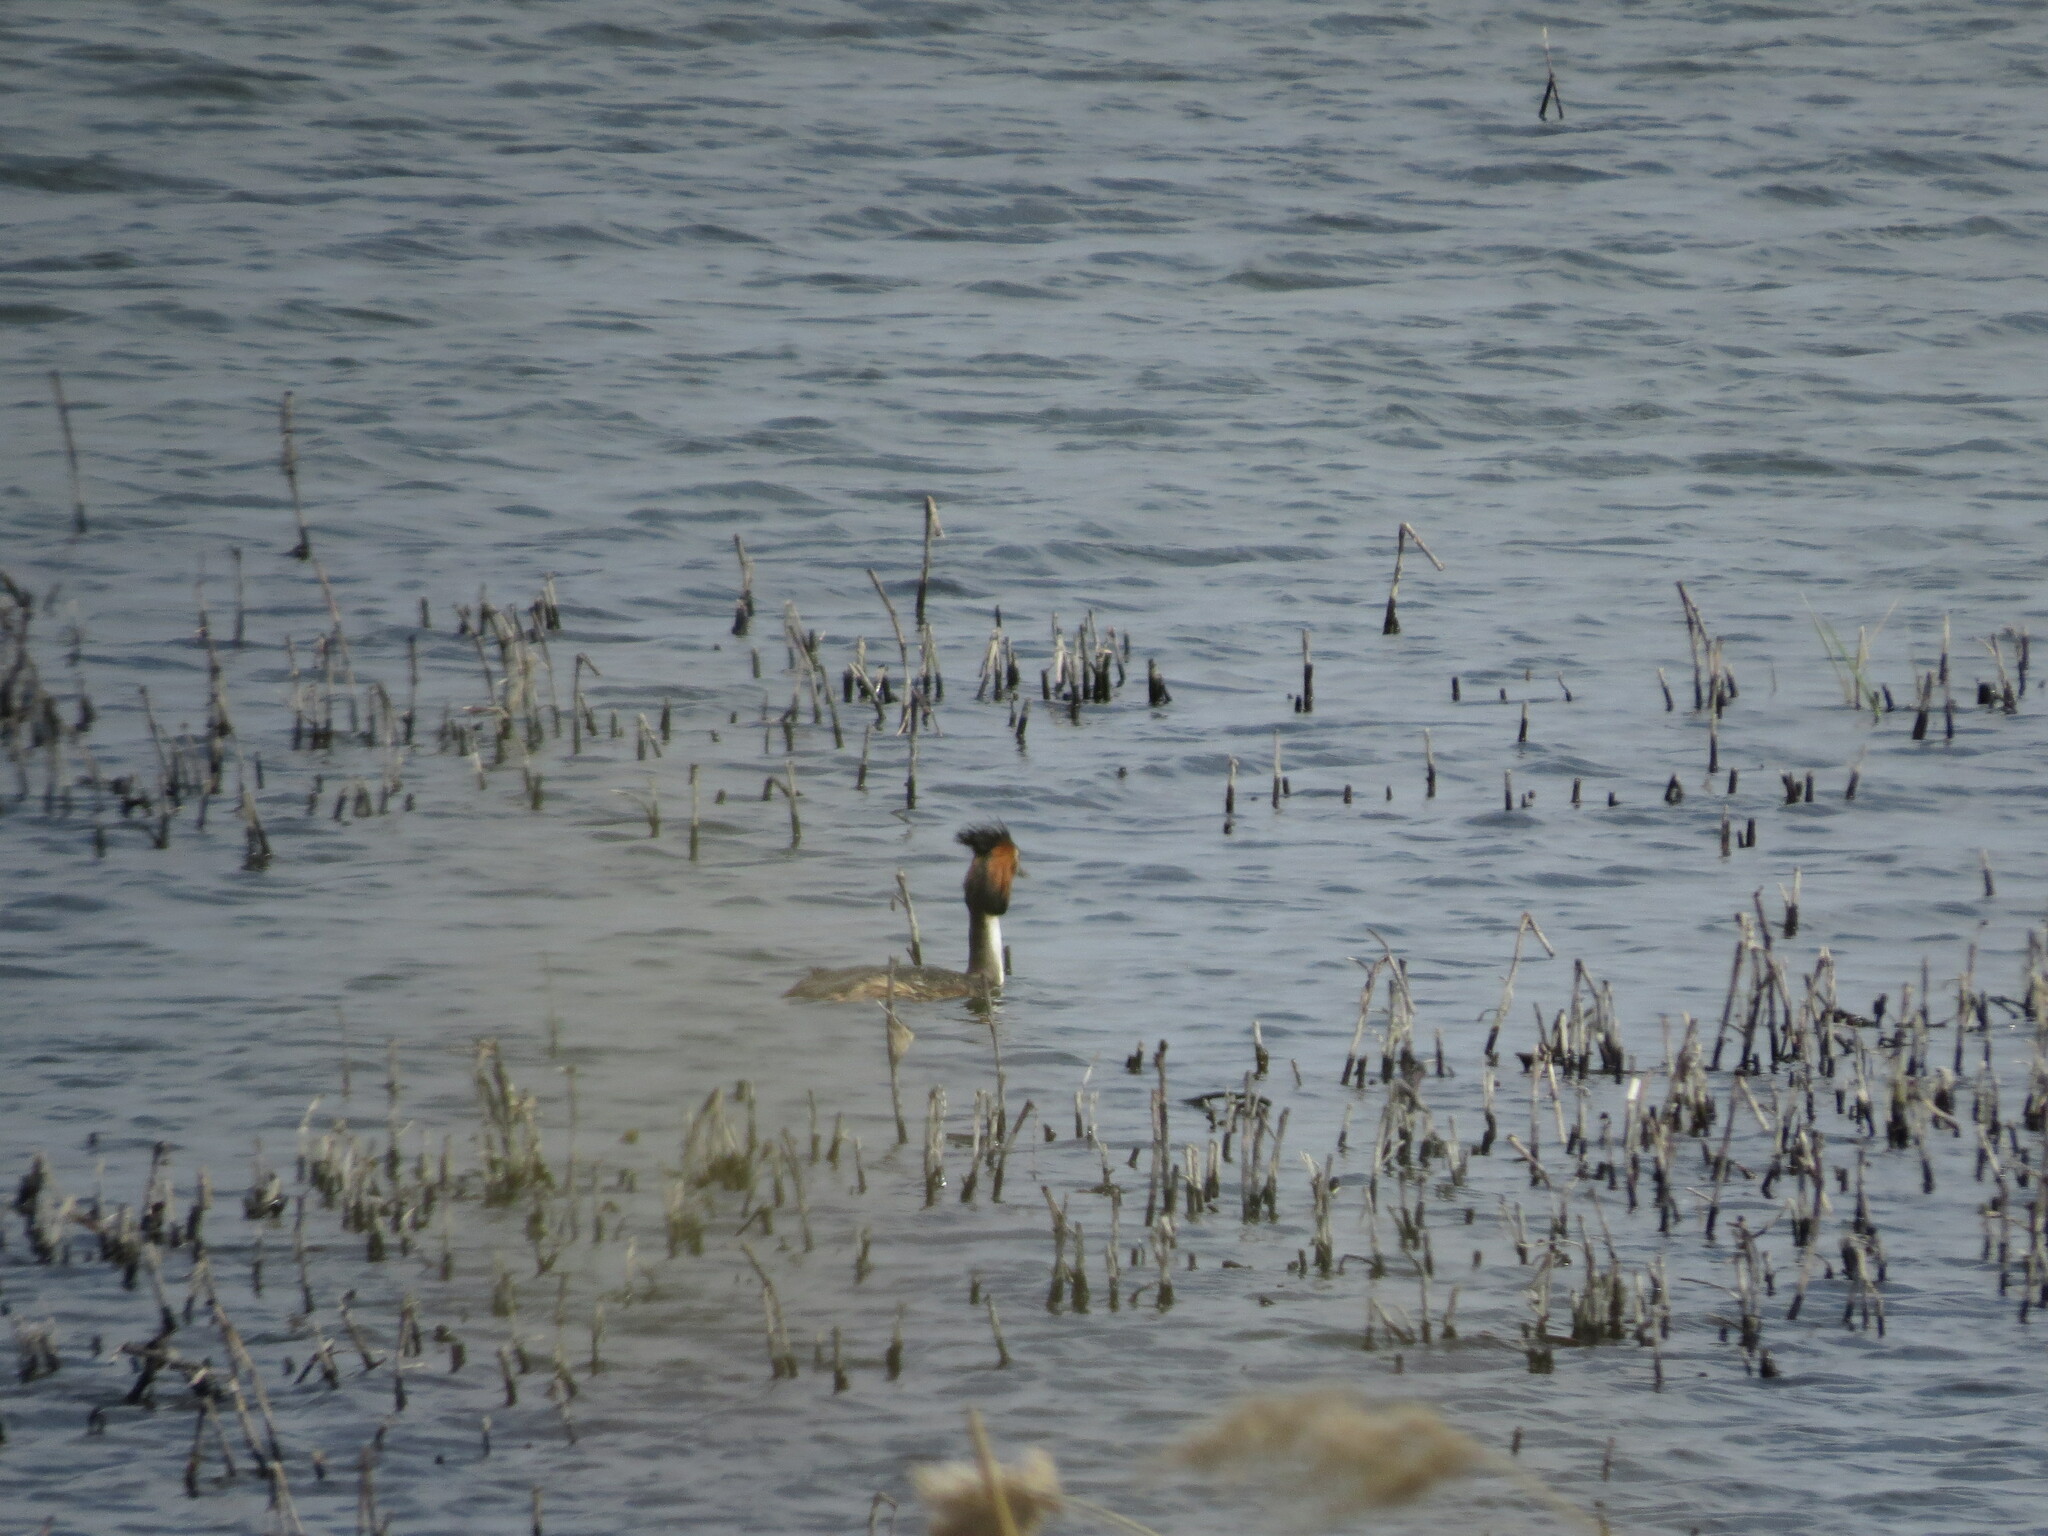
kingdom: Animalia
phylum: Chordata
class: Aves
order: Podicipediformes
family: Podicipedidae
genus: Podiceps
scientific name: Podiceps cristatus
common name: Great crested grebe
